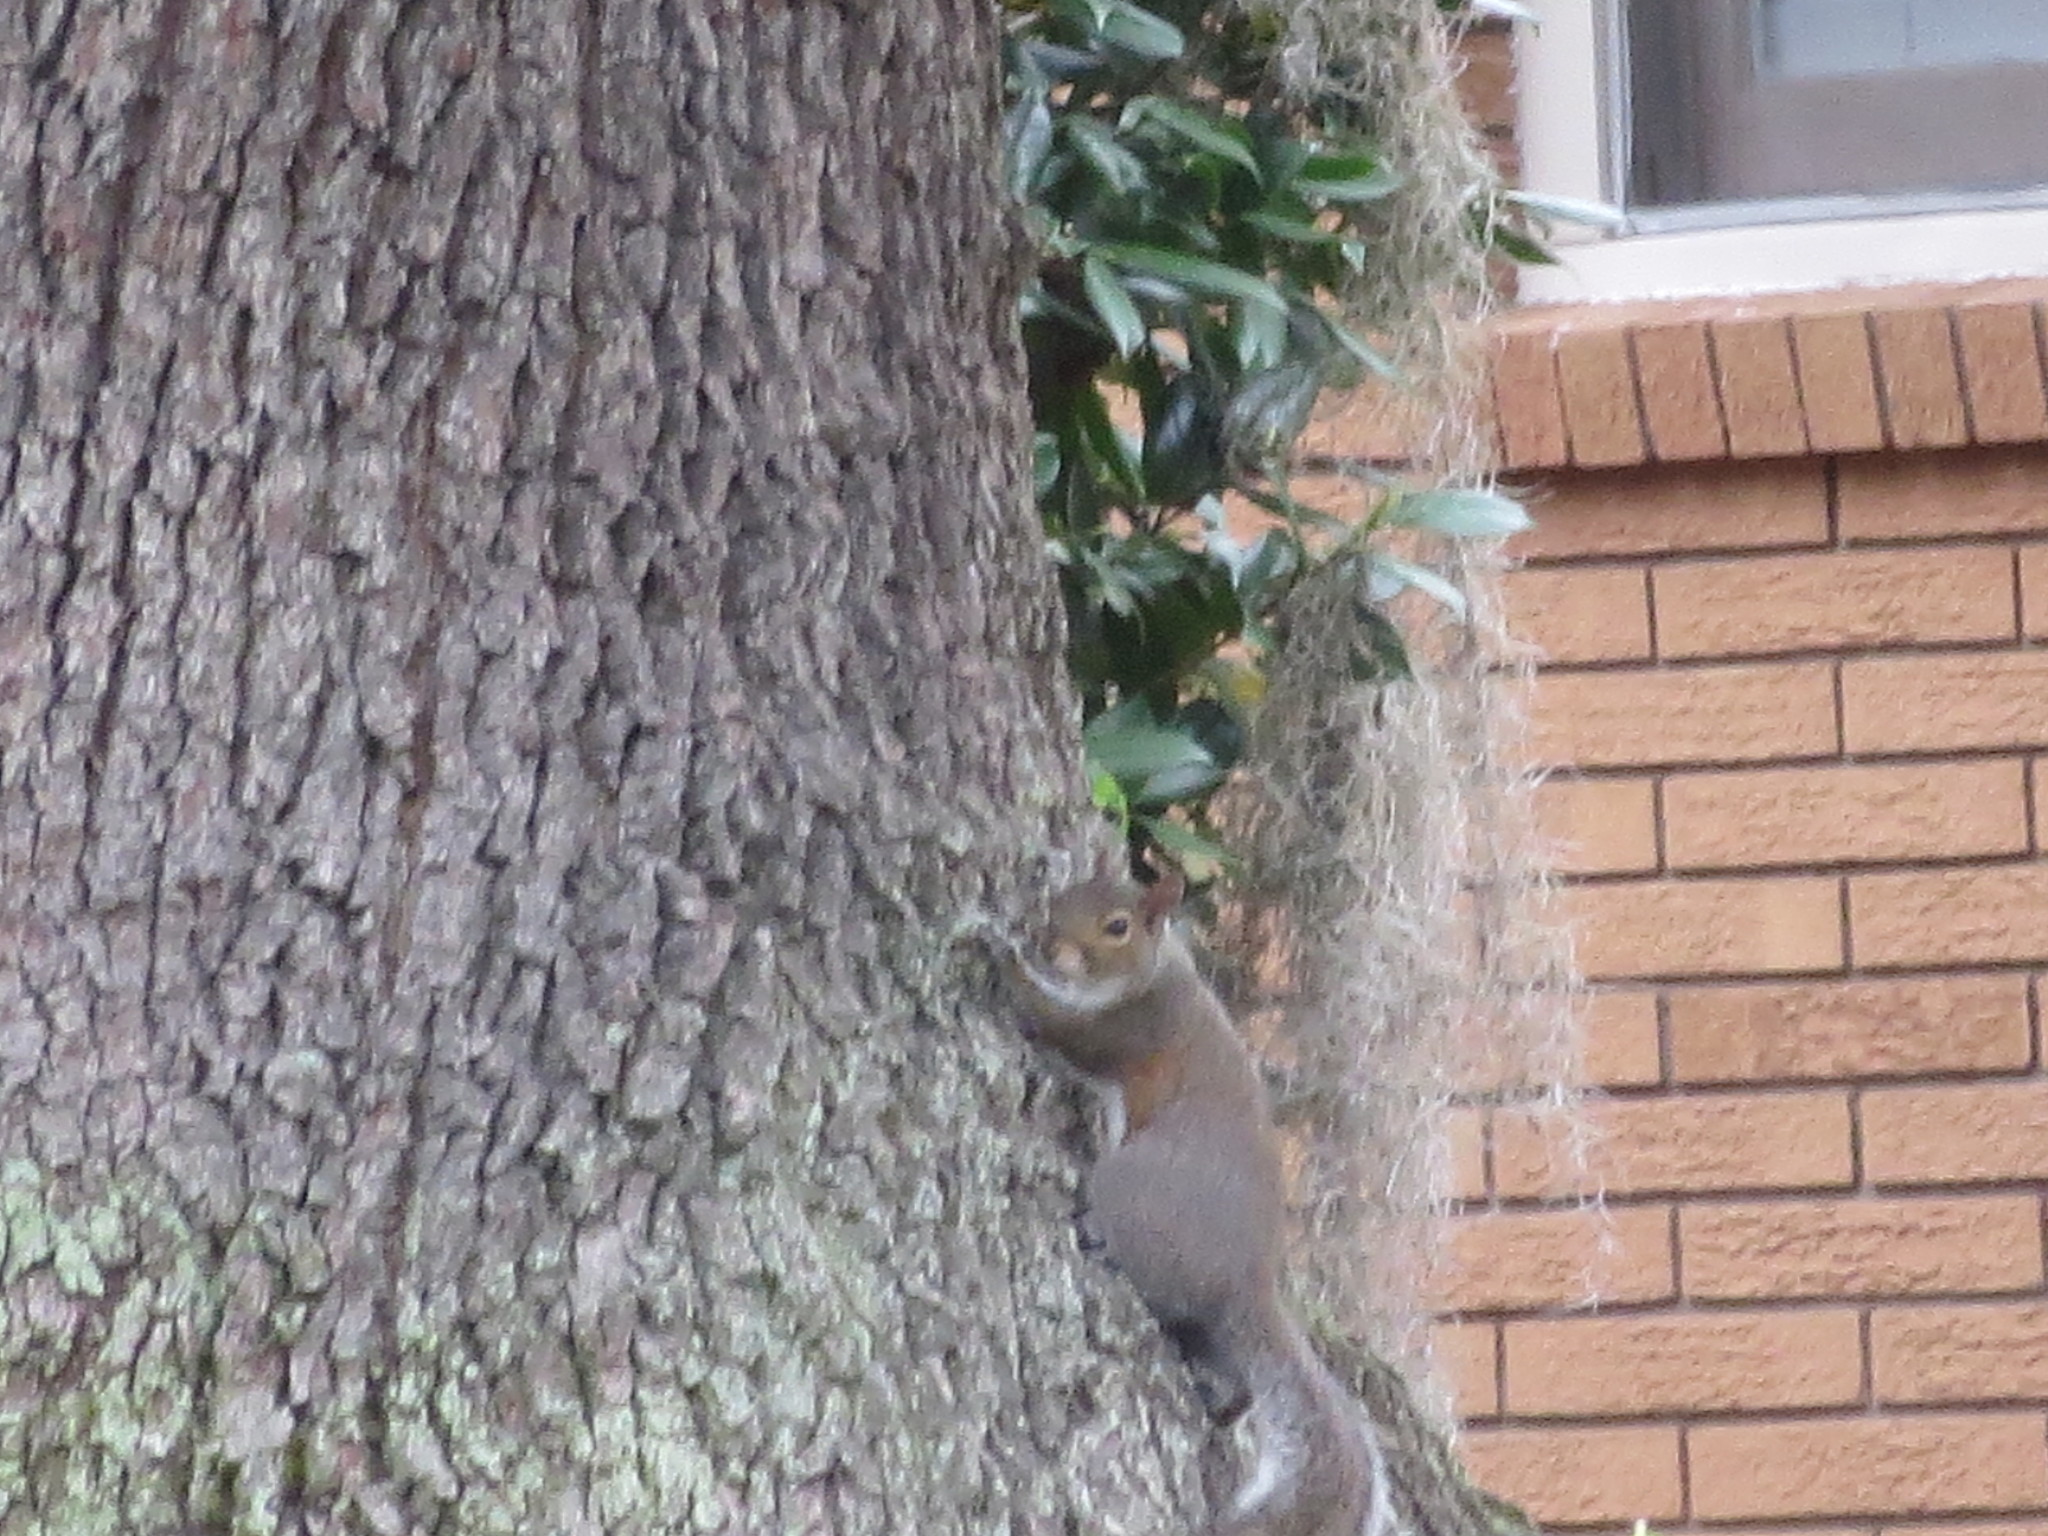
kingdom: Animalia
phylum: Chordata
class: Mammalia
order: Rodentia
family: Sciuridae
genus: Sciurus
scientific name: Sciurus carolinensis
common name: Eastern gray squirrel
